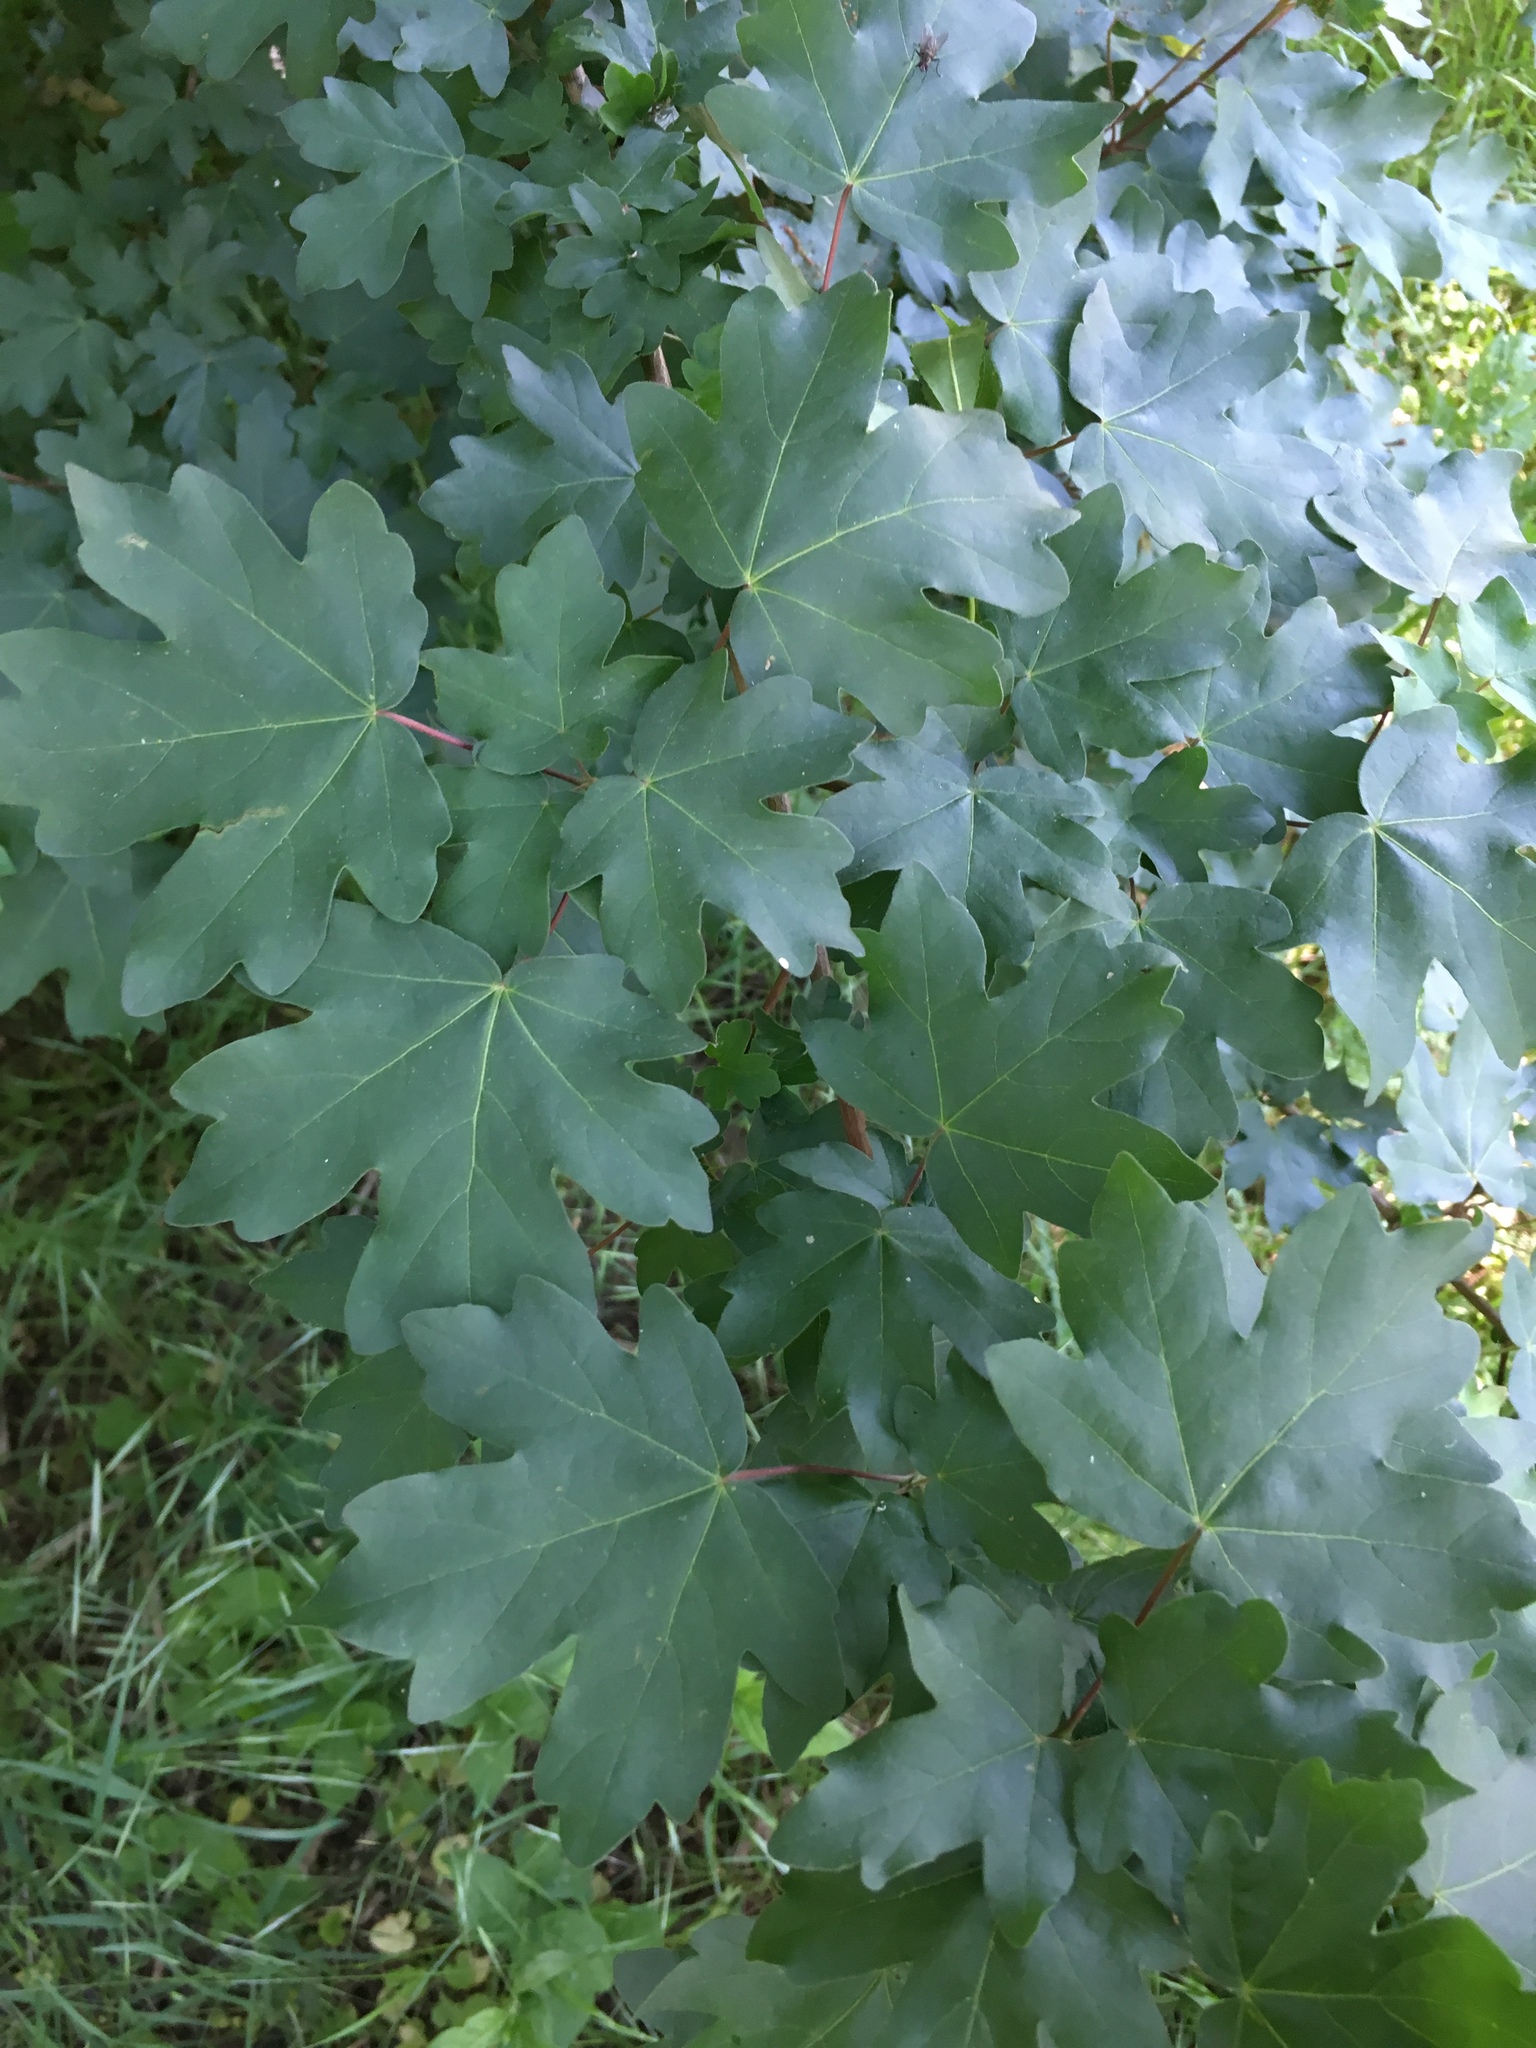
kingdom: Plantae
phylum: Tracheophyta
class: Magnoliopsida
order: Sapindales
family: Sapindaceae
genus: Acer
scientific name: Acer campestre
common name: Field maple
